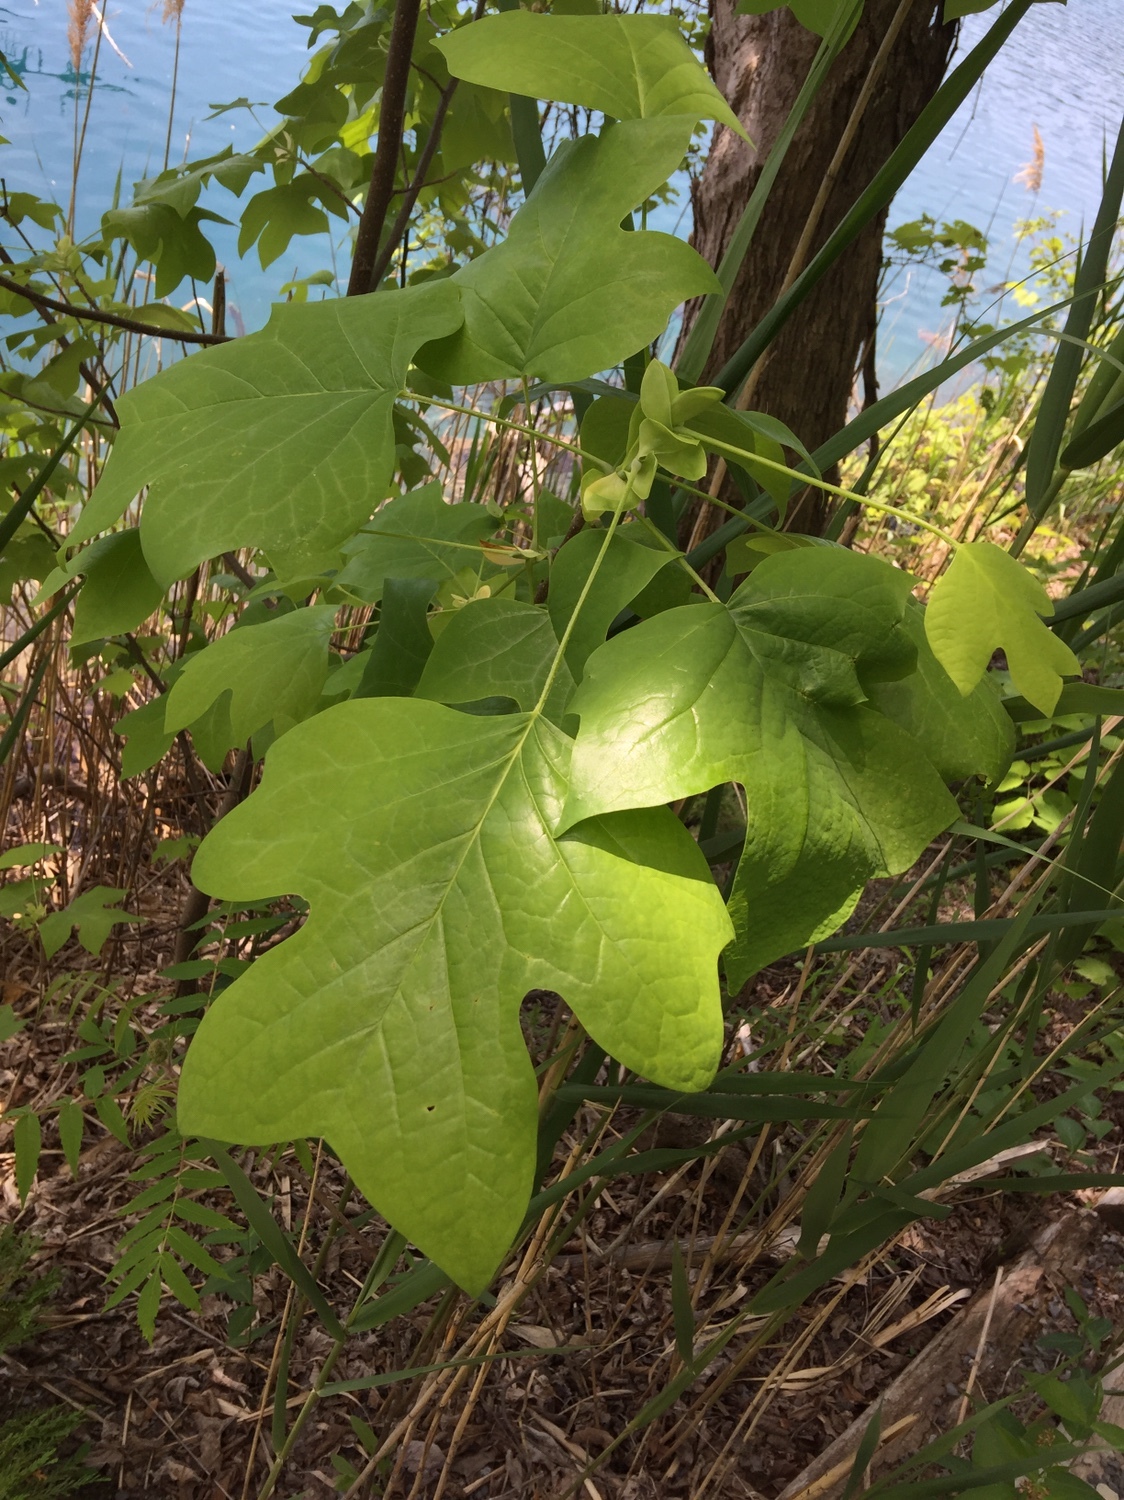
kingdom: Plantae
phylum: Tracheophyta
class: Magnoliopsida
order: Magnoliales
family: Magnoliaceae
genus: Liriodendron
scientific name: Liriodendron tulipifera
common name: Tulip tree
